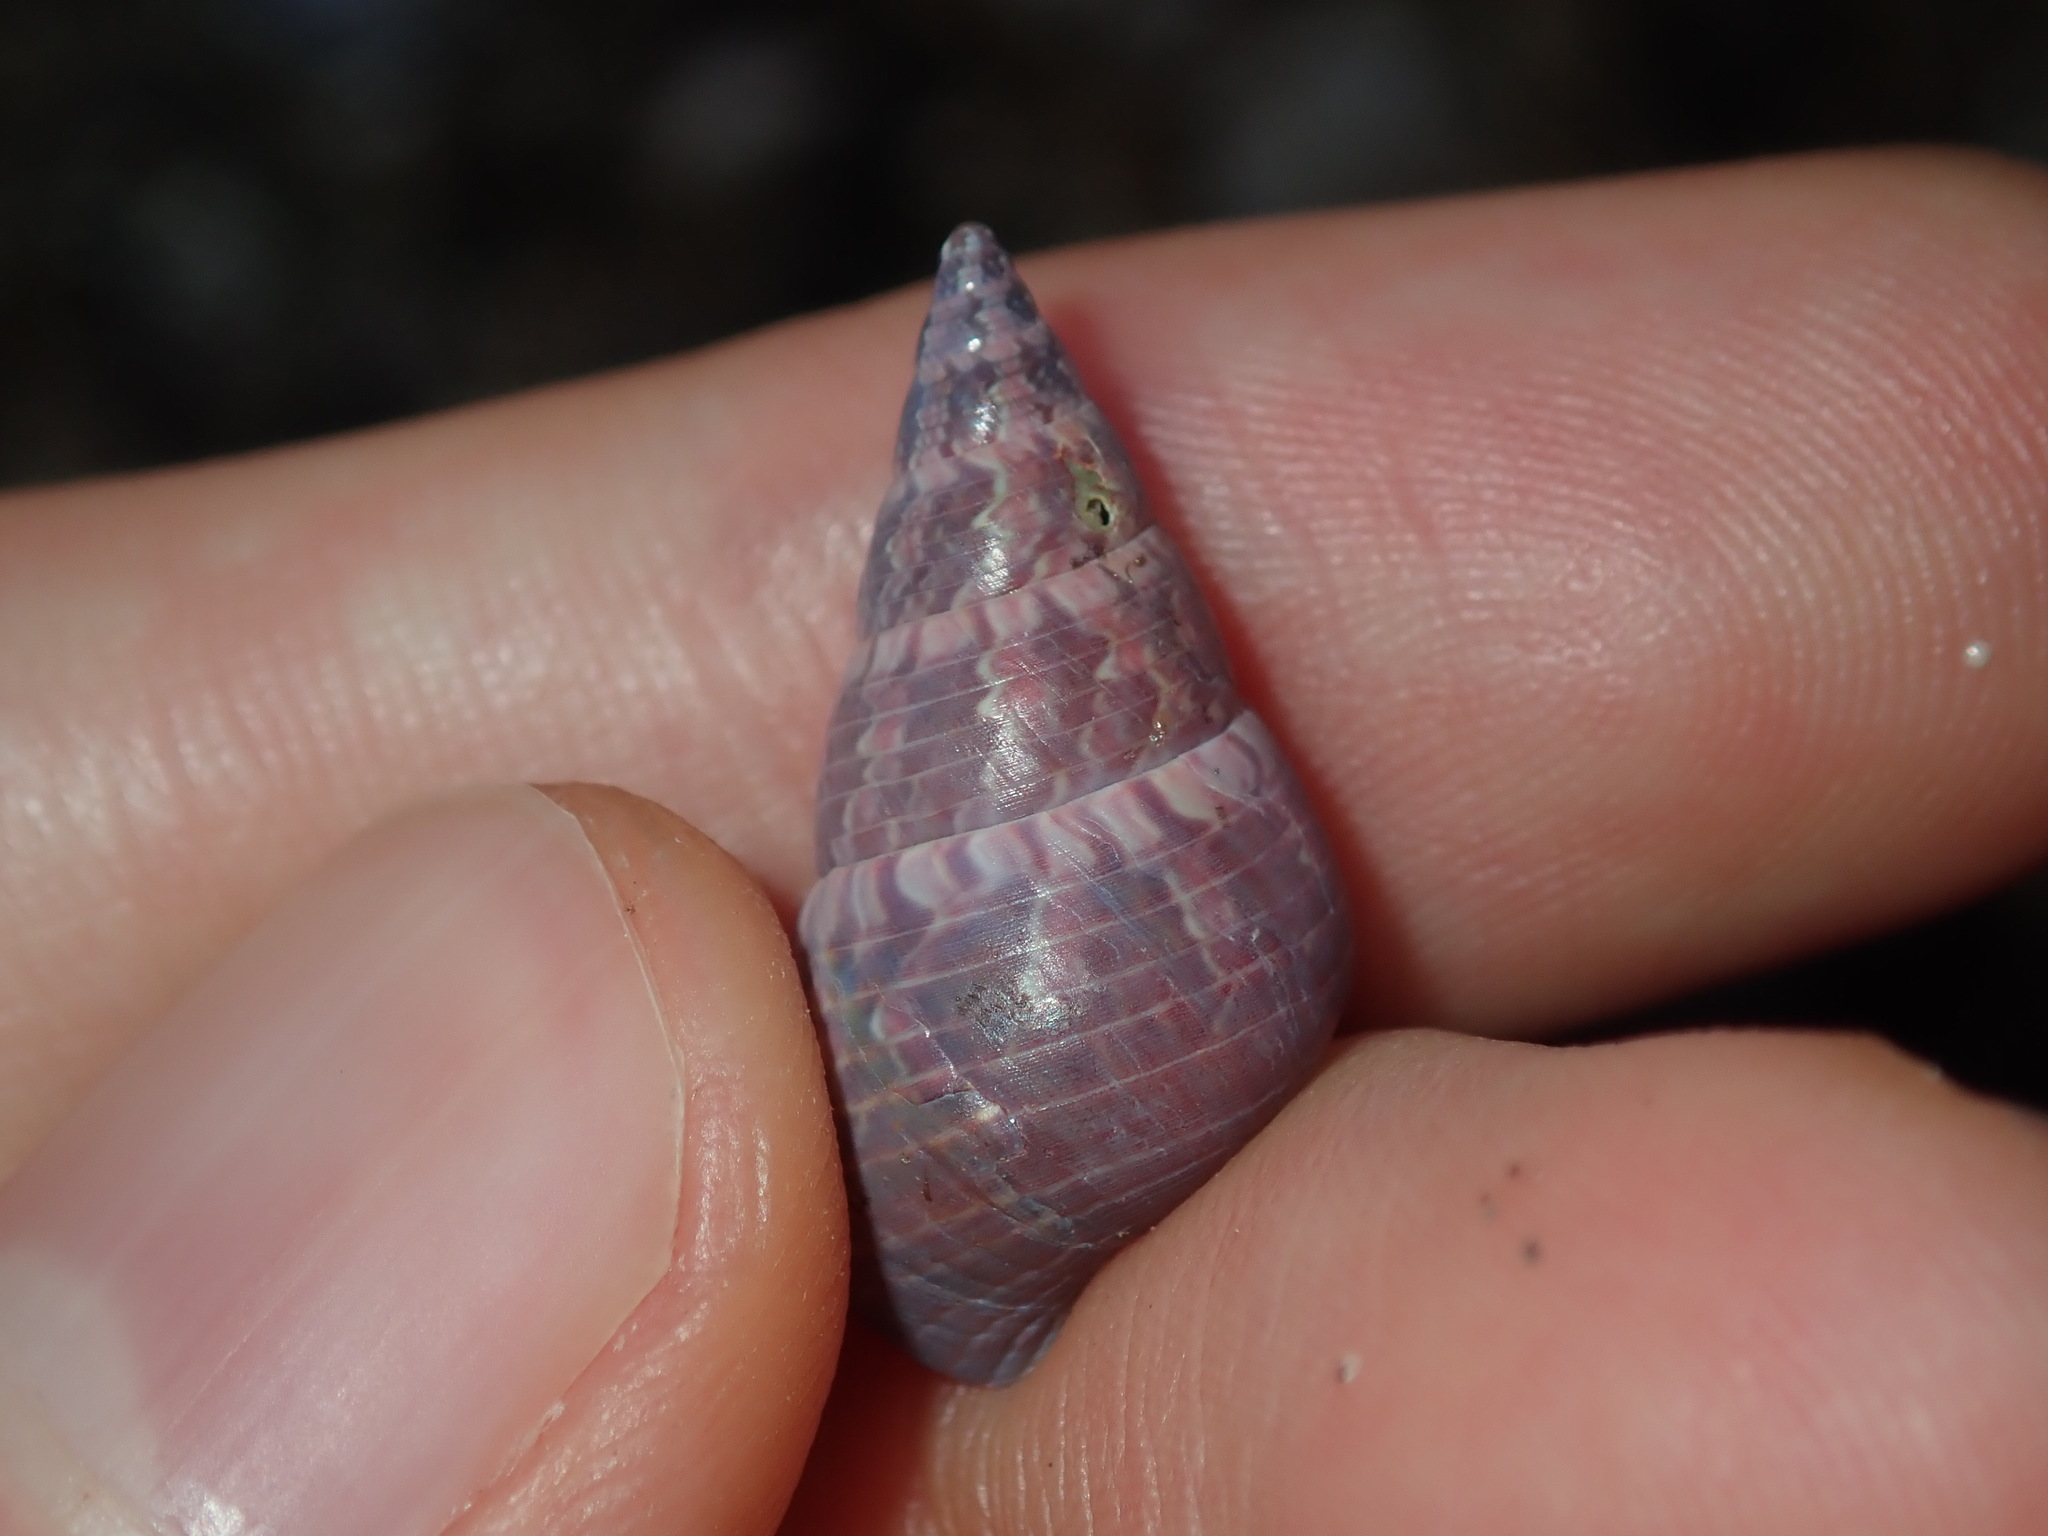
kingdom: Animalia
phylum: Mollusca
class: Gastropoda
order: Trochida
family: Trochidae
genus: Phasianotrochus
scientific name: Phasianotrochus eximius
